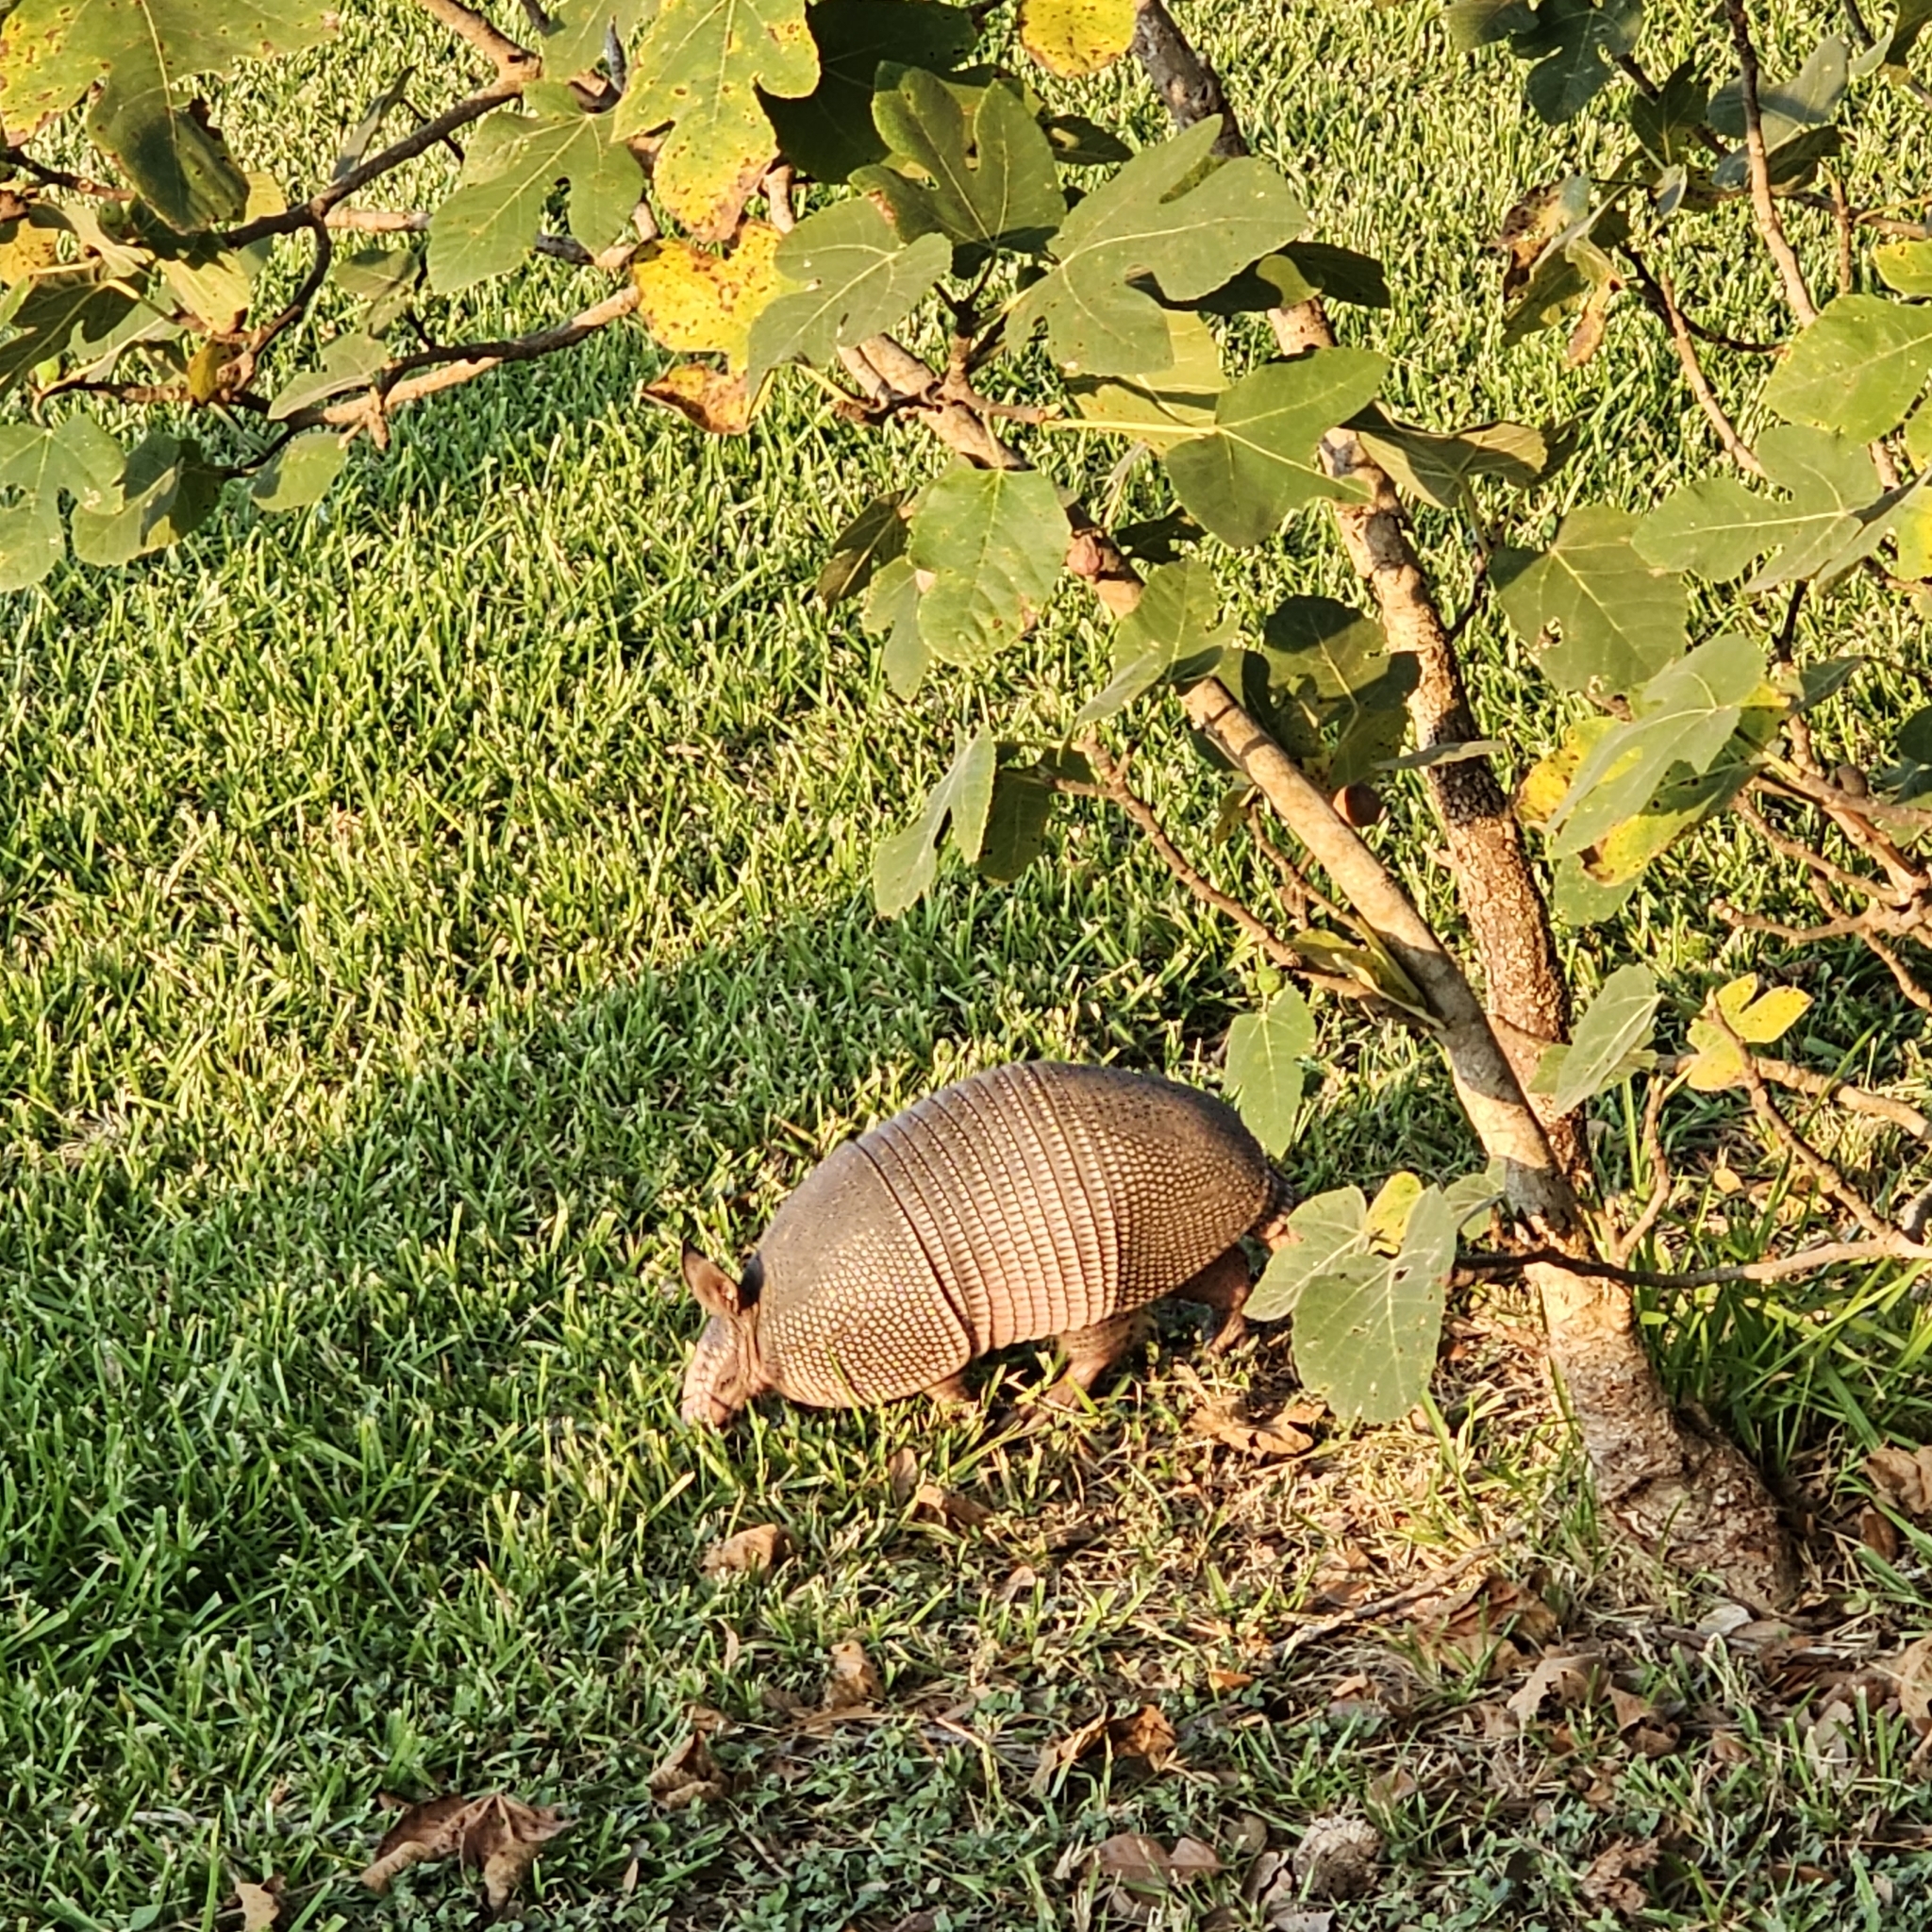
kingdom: Animalia
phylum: Chordata
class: Mammalia
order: Cingulata
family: Dasypodidae
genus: Dasypus
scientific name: Dasypus novemcinctus
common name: Nine-banded armadillo
